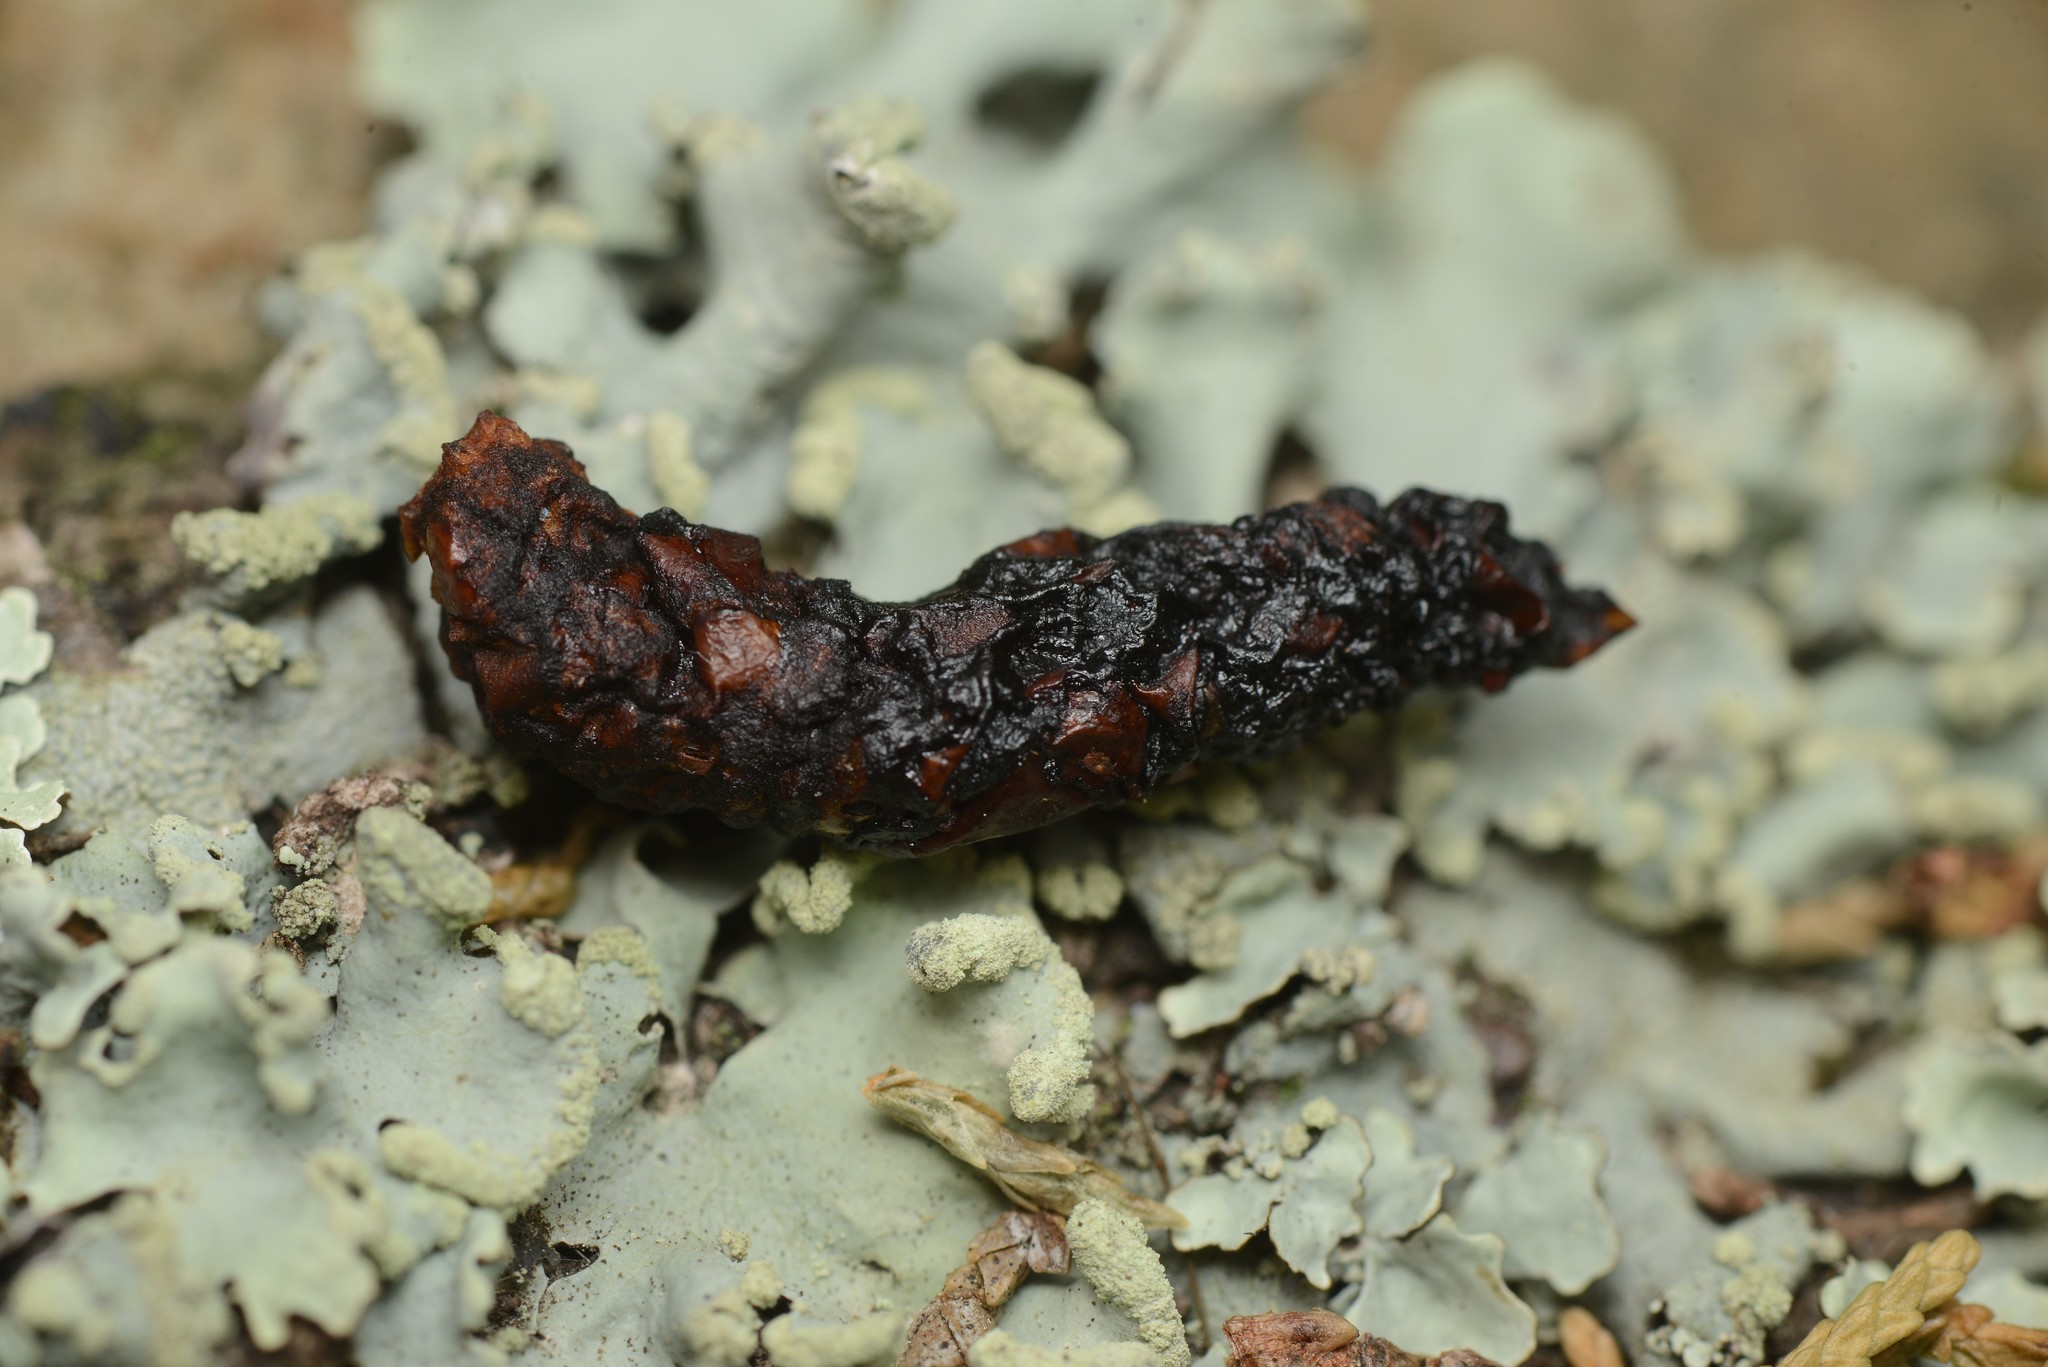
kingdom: Animalia
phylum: Chordata
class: Mammalia
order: Erinaceomorpha
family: Erinaceidae
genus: Erinaceus
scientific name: Erinaceus europaeus
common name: West european hedgehog
